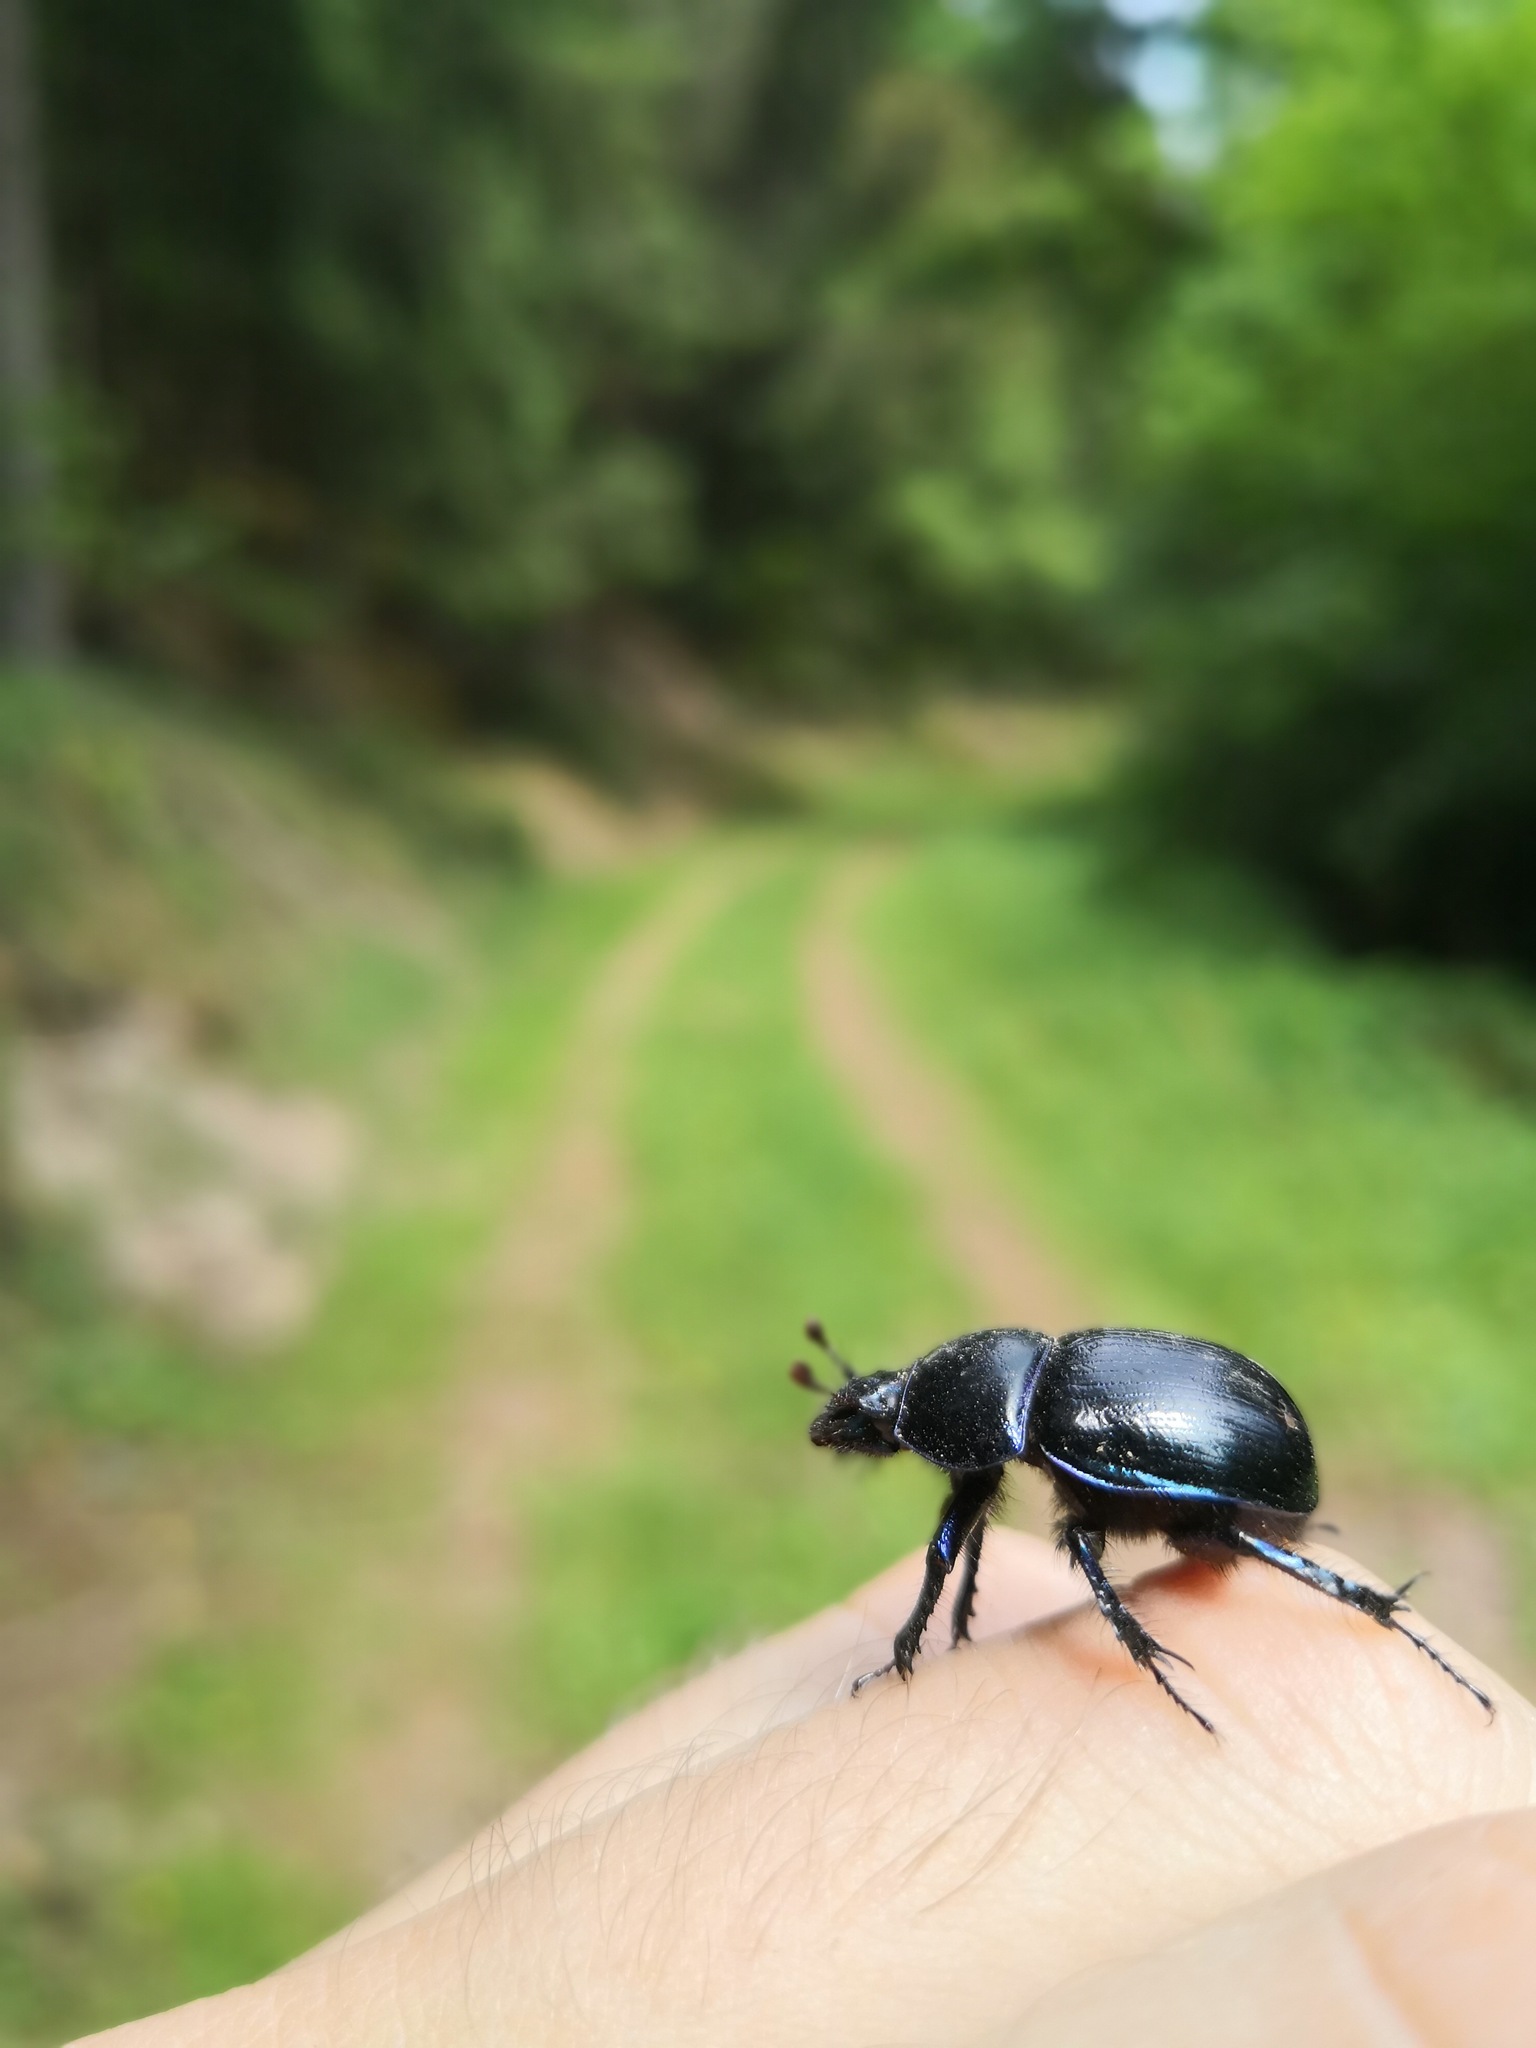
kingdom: Animalia
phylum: Arthropoda
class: Insecta
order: Coleoptera
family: Geotrupidae
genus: Anoplotrupes
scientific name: Anoplotrupes stercorosus
